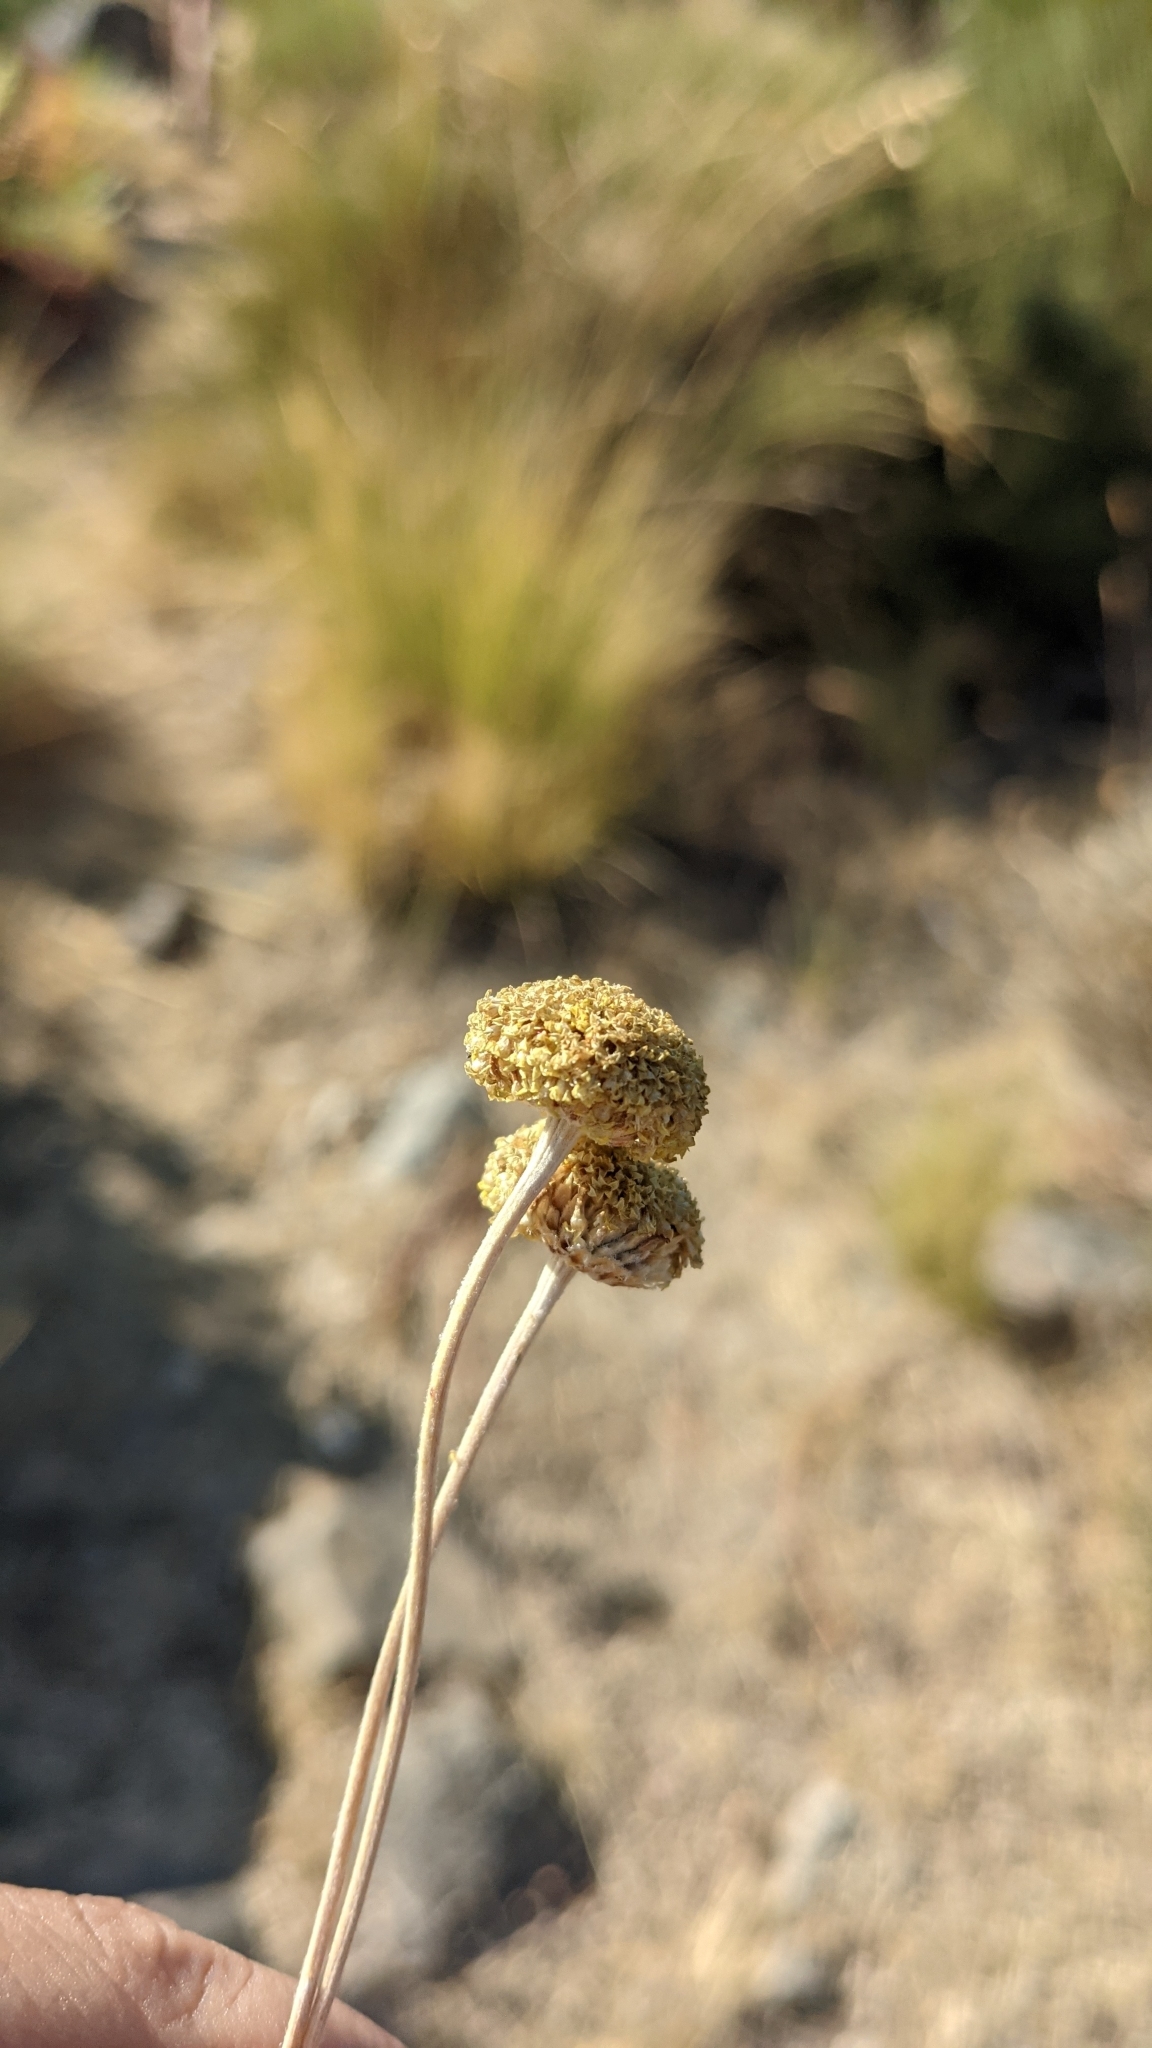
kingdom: Plantae
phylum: Tracheophyta
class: Magnoliopsida
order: Asterales
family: Asteraceae
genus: Santolina
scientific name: Santolina oblongifolia
